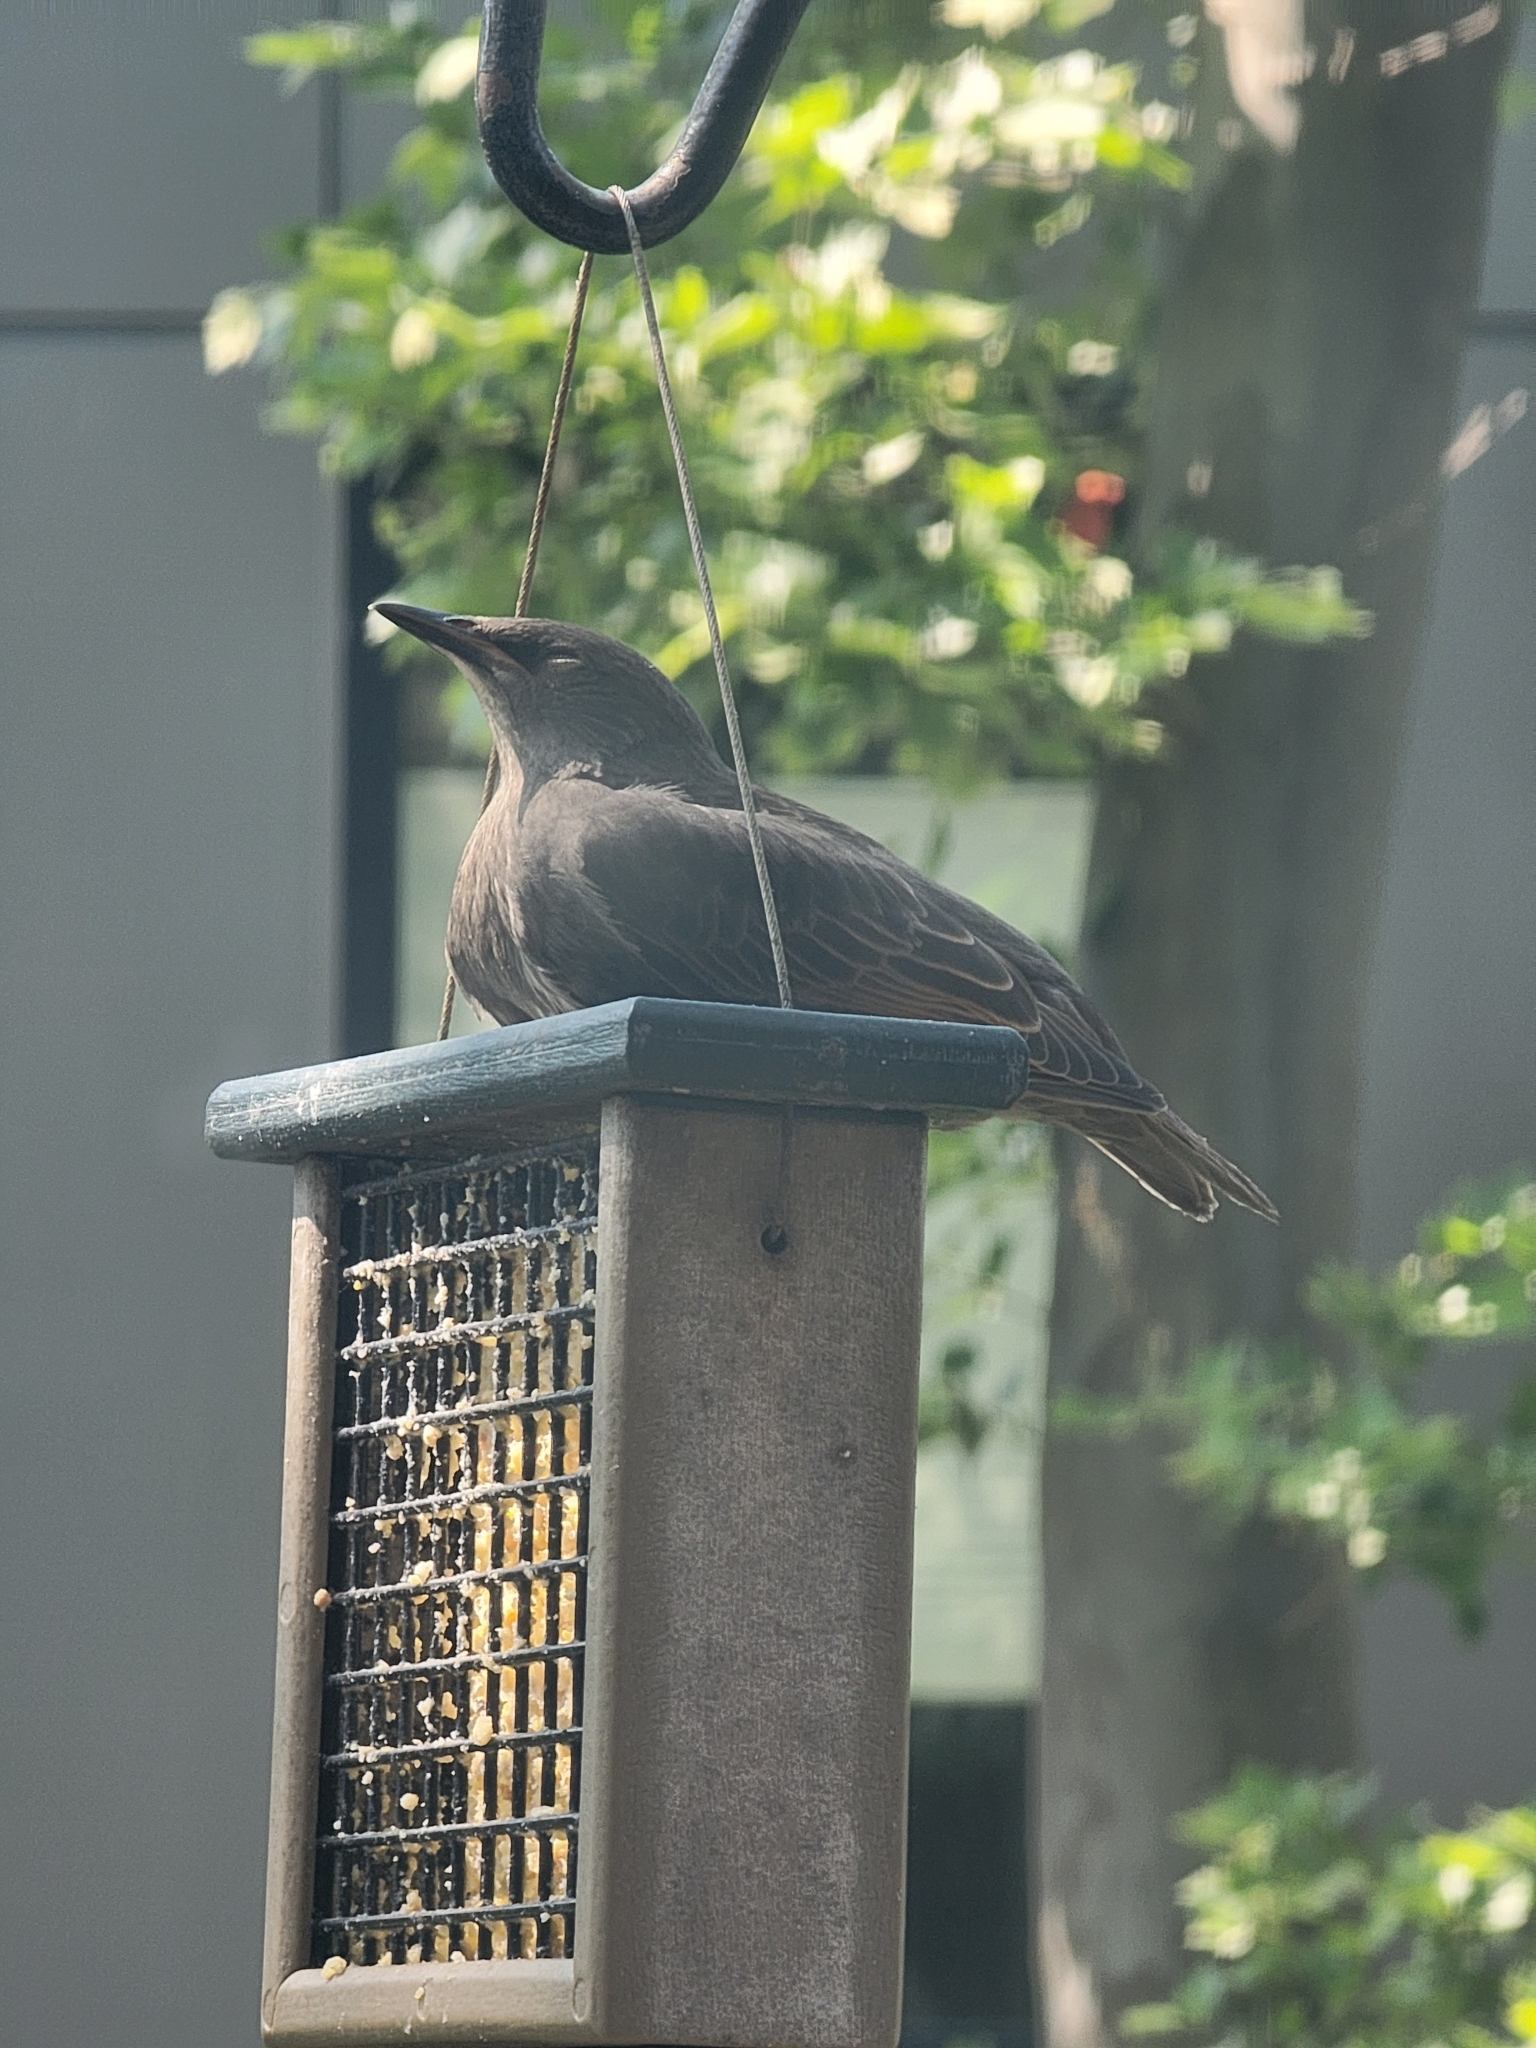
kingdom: Animalia
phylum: Chordata
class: Aves
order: Passeriformes
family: Sturnidae
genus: Sturnus
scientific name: Sturnus vulgaris
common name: Common starling
